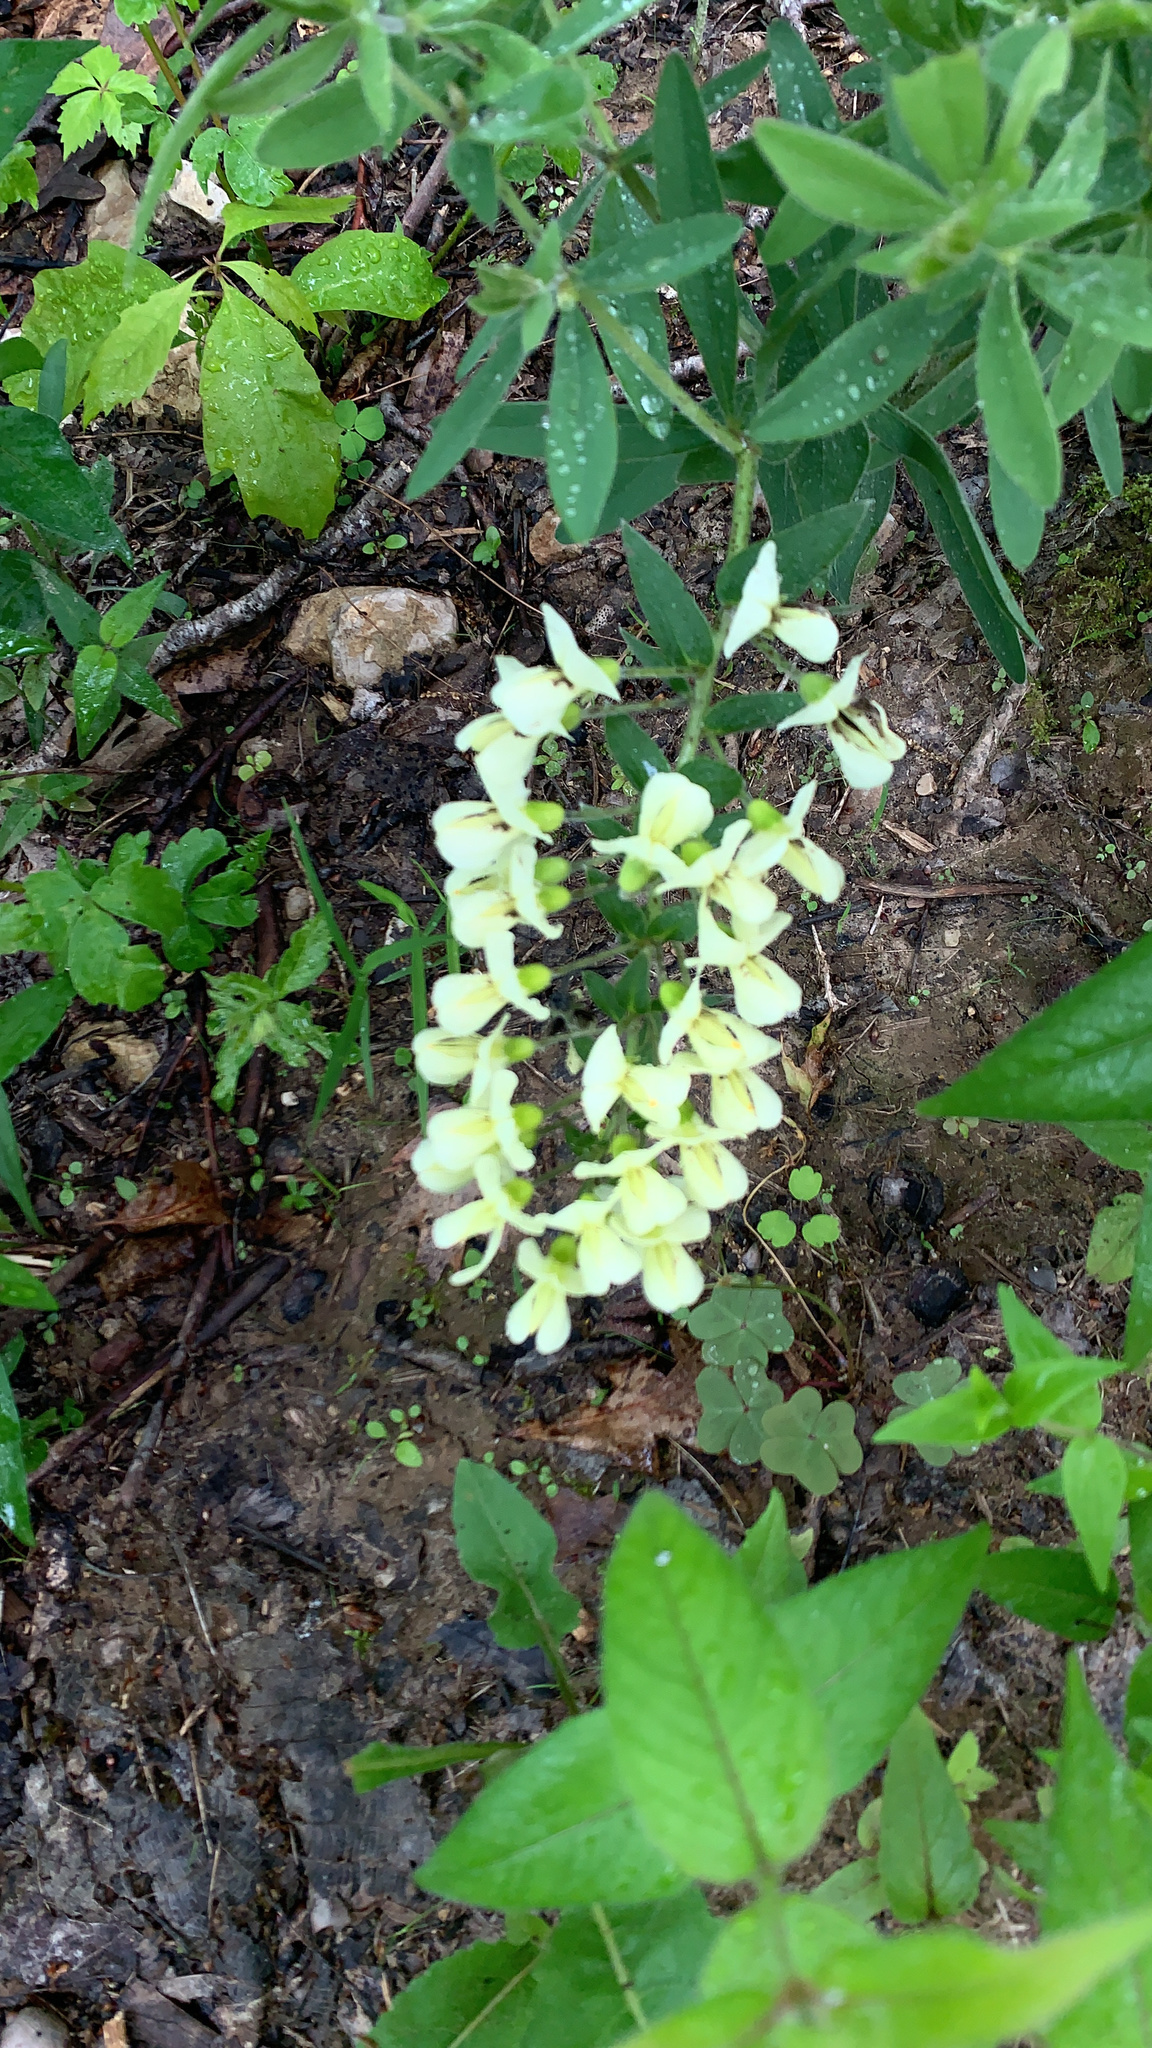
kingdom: Plantae
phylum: Tracheophyta
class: Magnoliopsida
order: Fabales
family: Fabaceae
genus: Baptisia
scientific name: Baptisia bracteata
